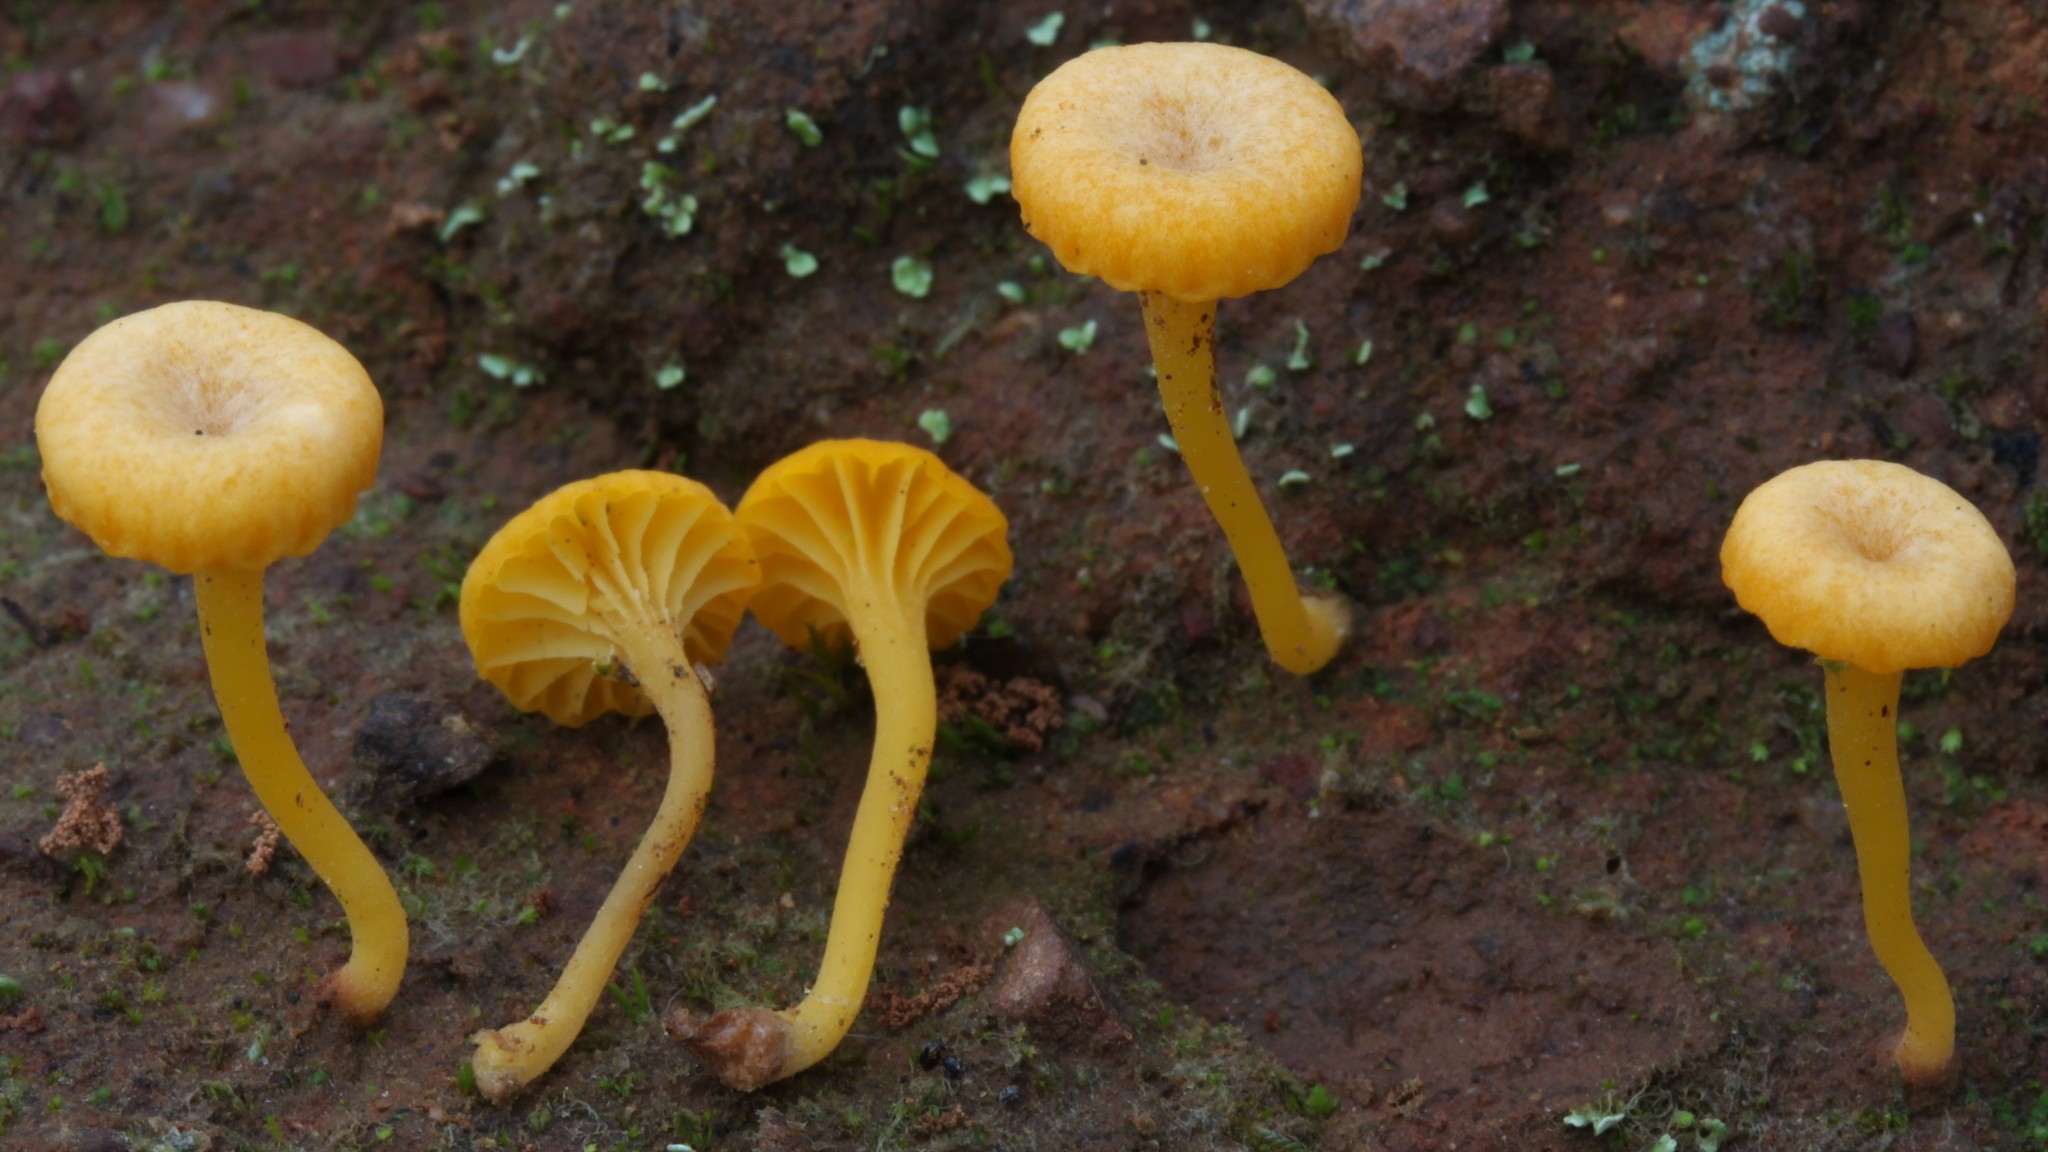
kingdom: Fungi
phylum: Basidiomycota
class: Agaricomycetes
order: Agaricales
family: Hygrophoraceae
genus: Lichenomphalia
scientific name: Lichenomphalia chromacea
